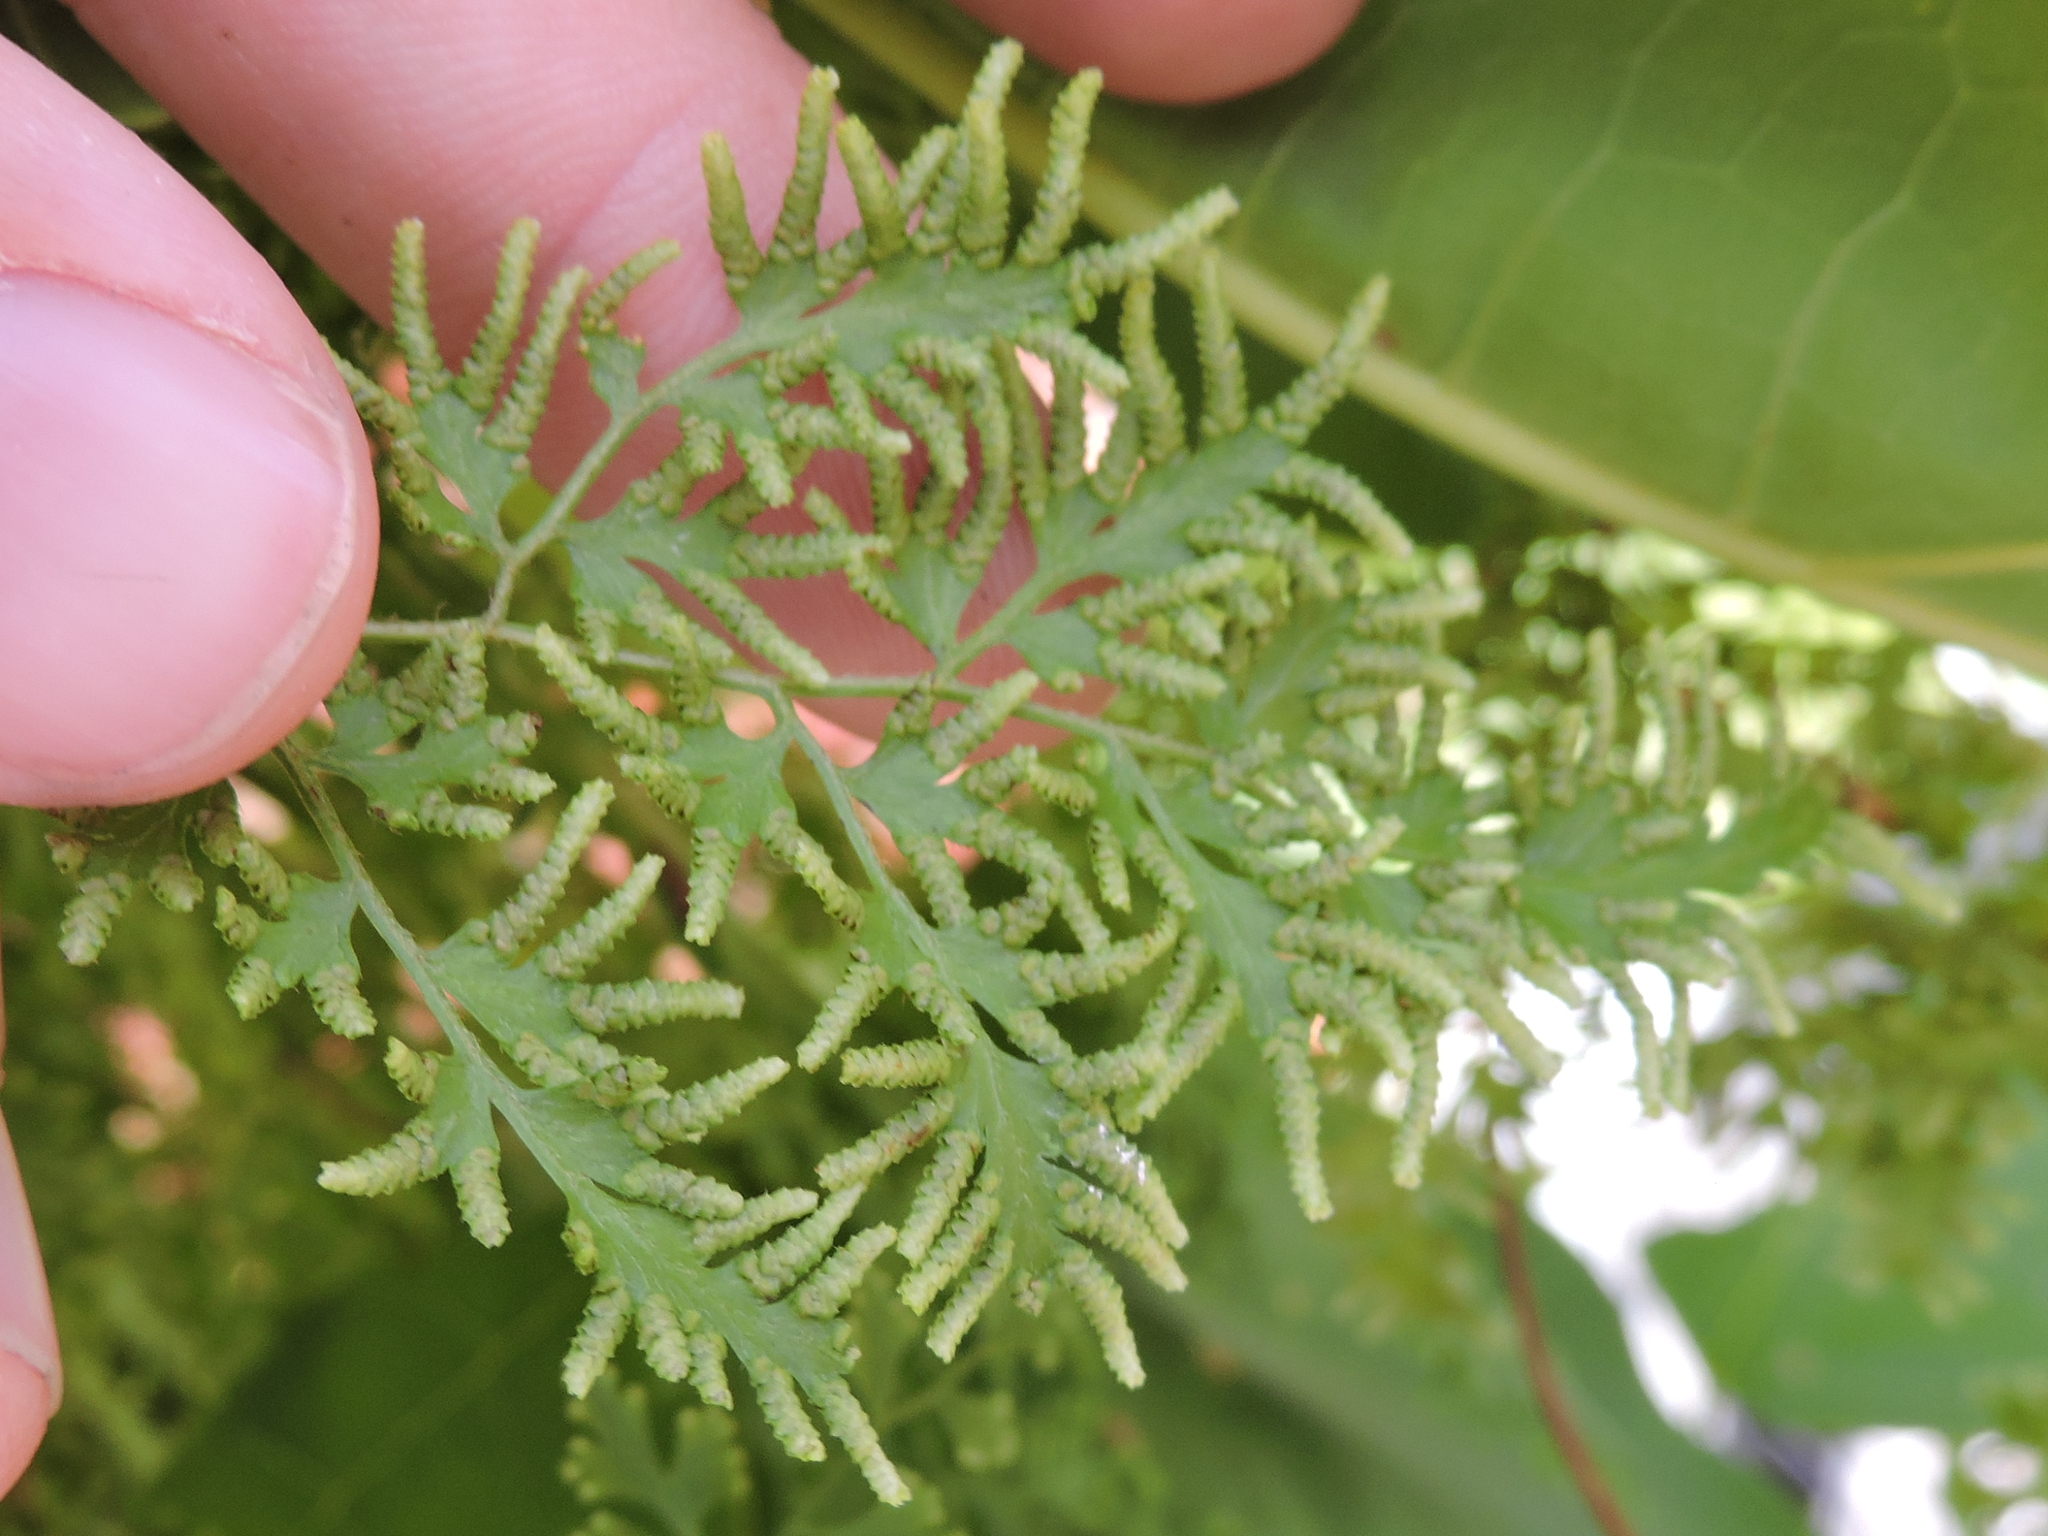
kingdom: Plantae
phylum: Tracheophyta
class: Polypodiopsida
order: Schizaeales
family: Lygodiaceae
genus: Lygodium
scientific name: Lygodium japonicum
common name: Japanese climbing fern
